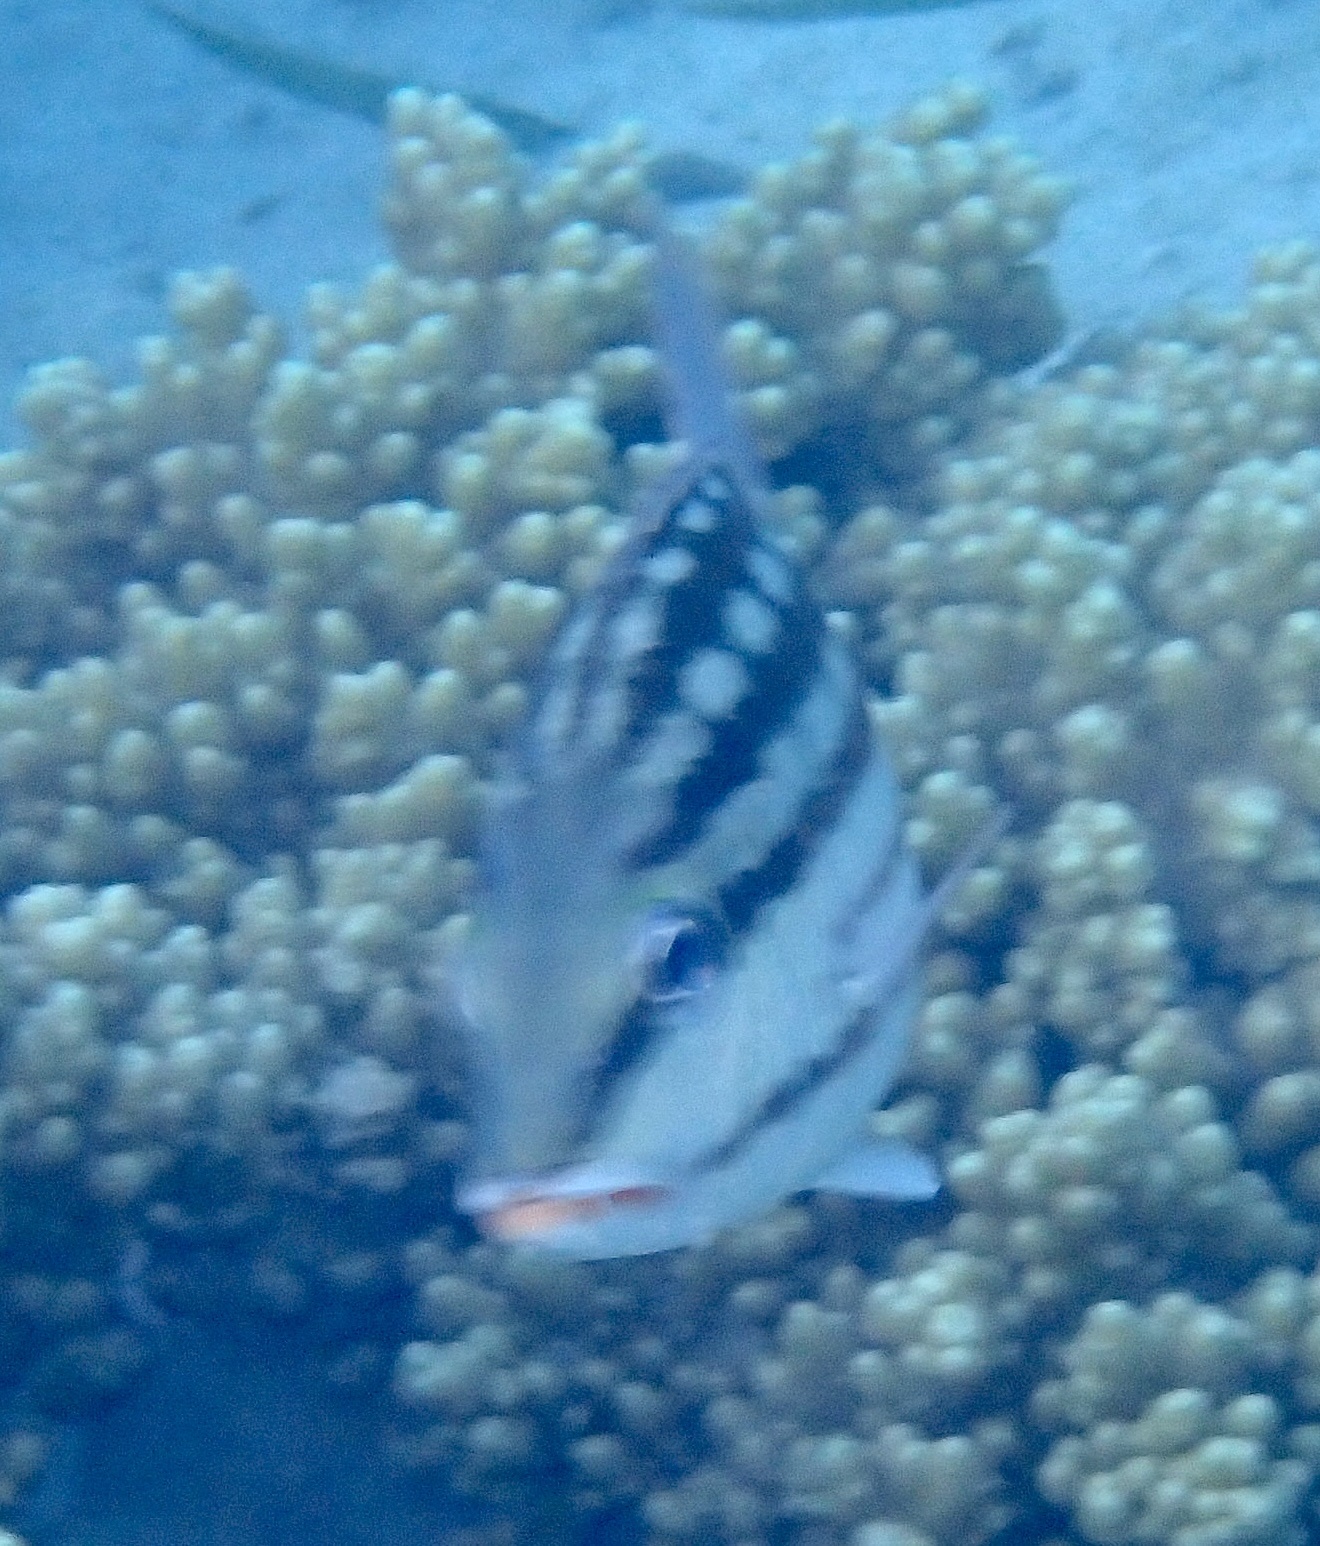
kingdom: Animalia
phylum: Chordata
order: Perciformes
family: Lutjanidae
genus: Lutjanus
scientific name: Lutjanus decussatus
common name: Checkered snapper
